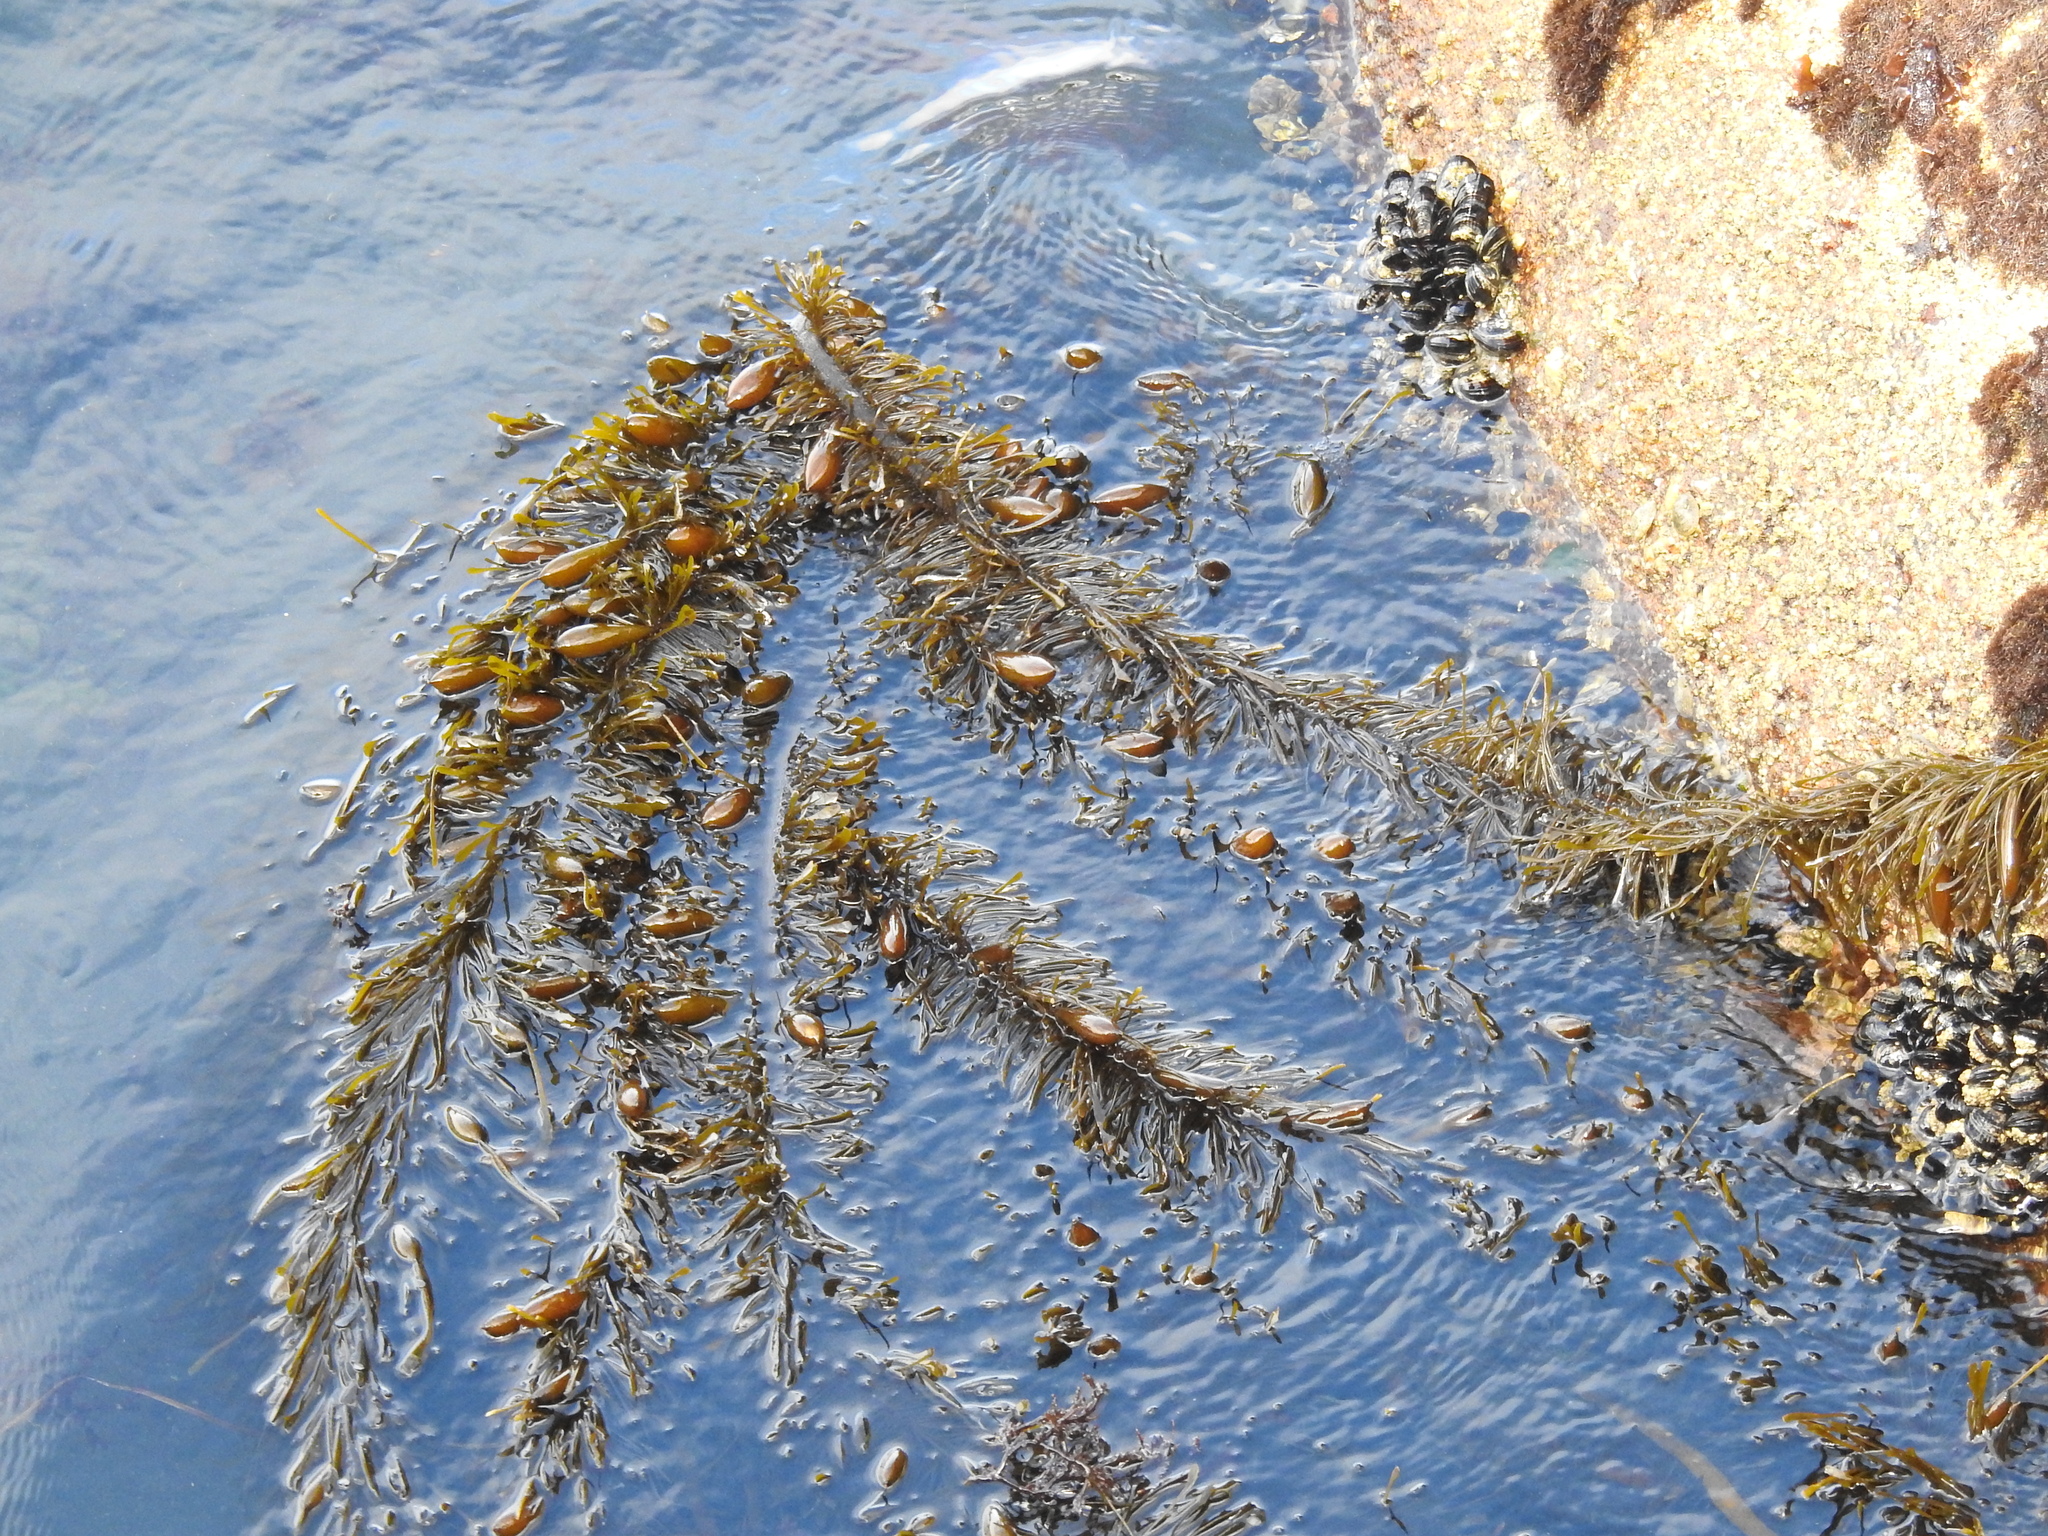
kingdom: Chromista
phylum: Ochrophyta
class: Phaeophyceae
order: Laminariales
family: Lessoniaceae
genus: Egregia
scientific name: Egregia menziesii
